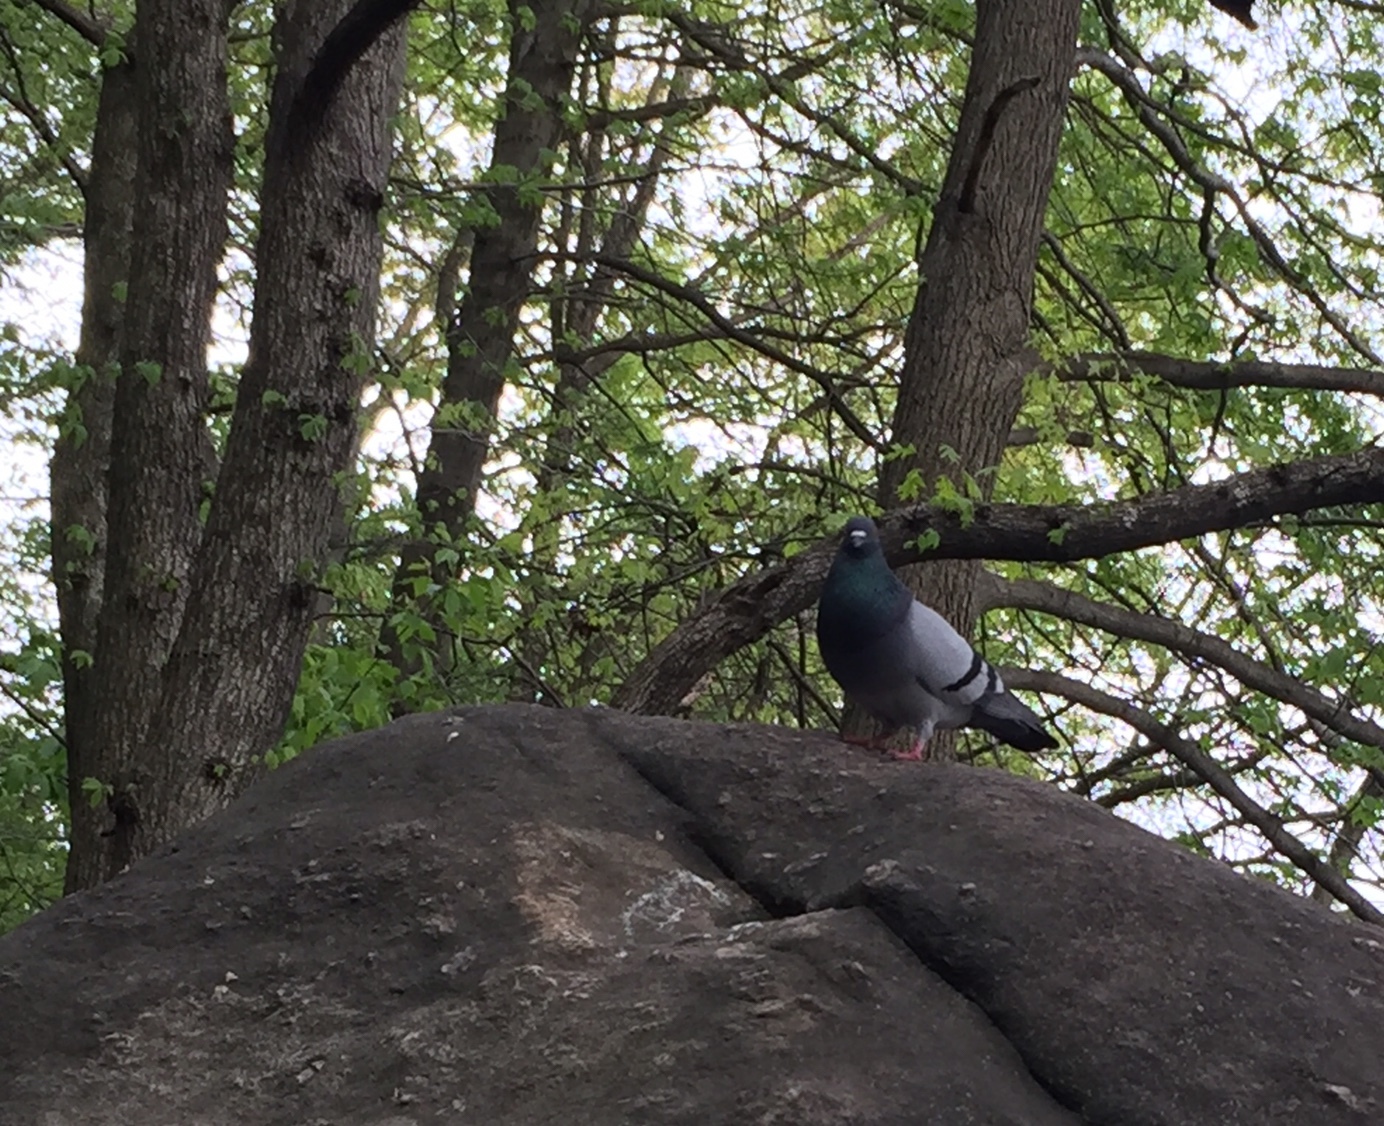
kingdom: Animalia
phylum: Chordata
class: Aves
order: Columbiformes
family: Columbidae
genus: Columba
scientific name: Columba livia
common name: Rock pigeon
